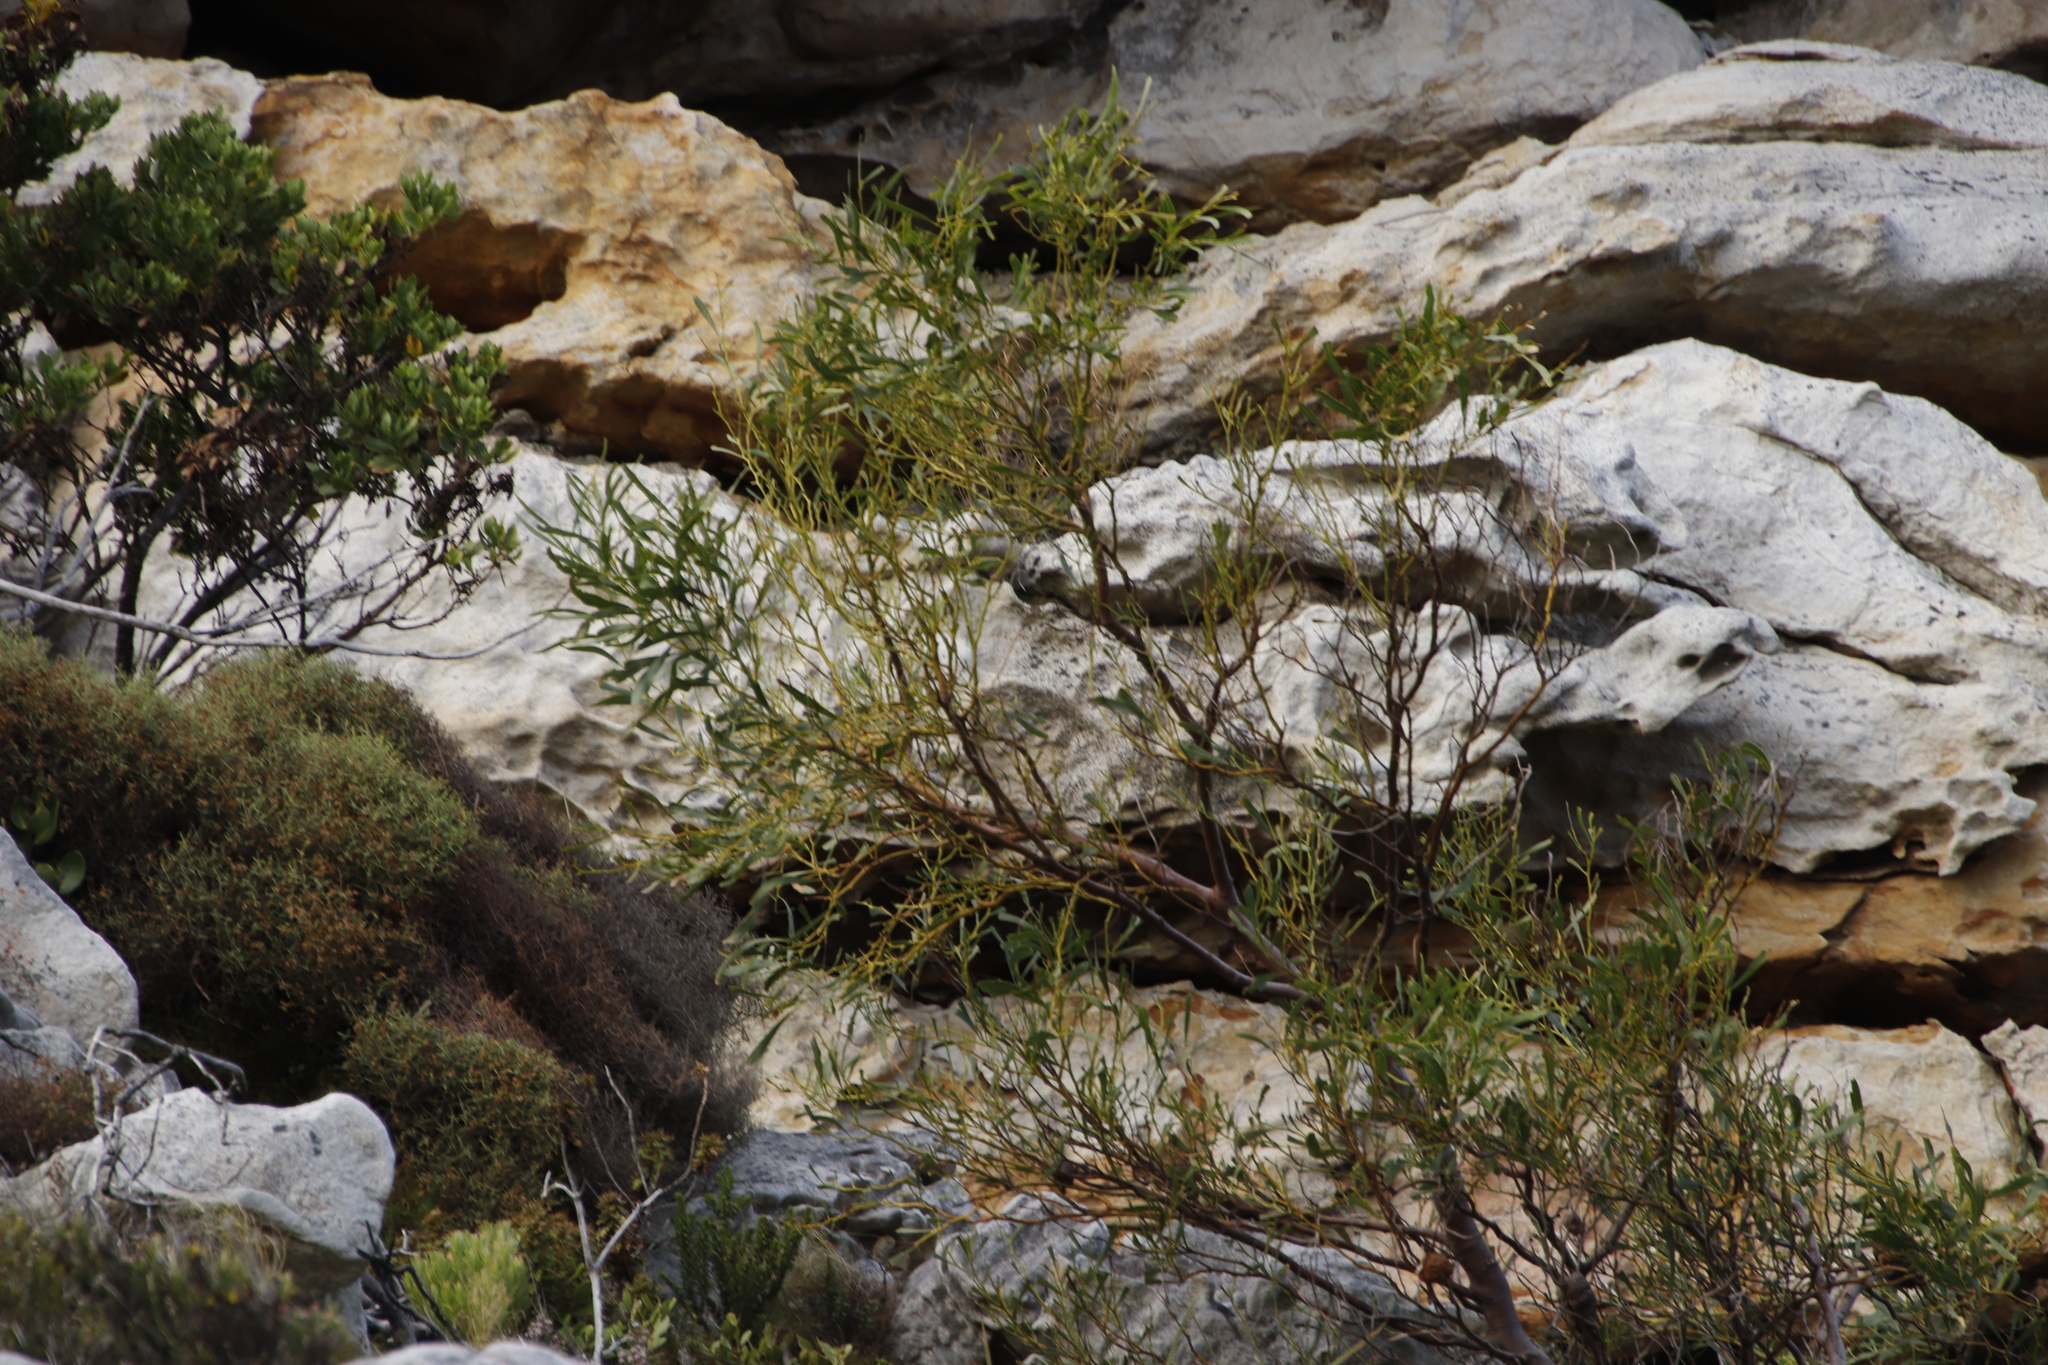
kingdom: Plantae
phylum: Tracheophyta
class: Magnoliopsida
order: Fabales
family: Fabaceae
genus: Acacia
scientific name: Acacia saligna
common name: Orange wattle
